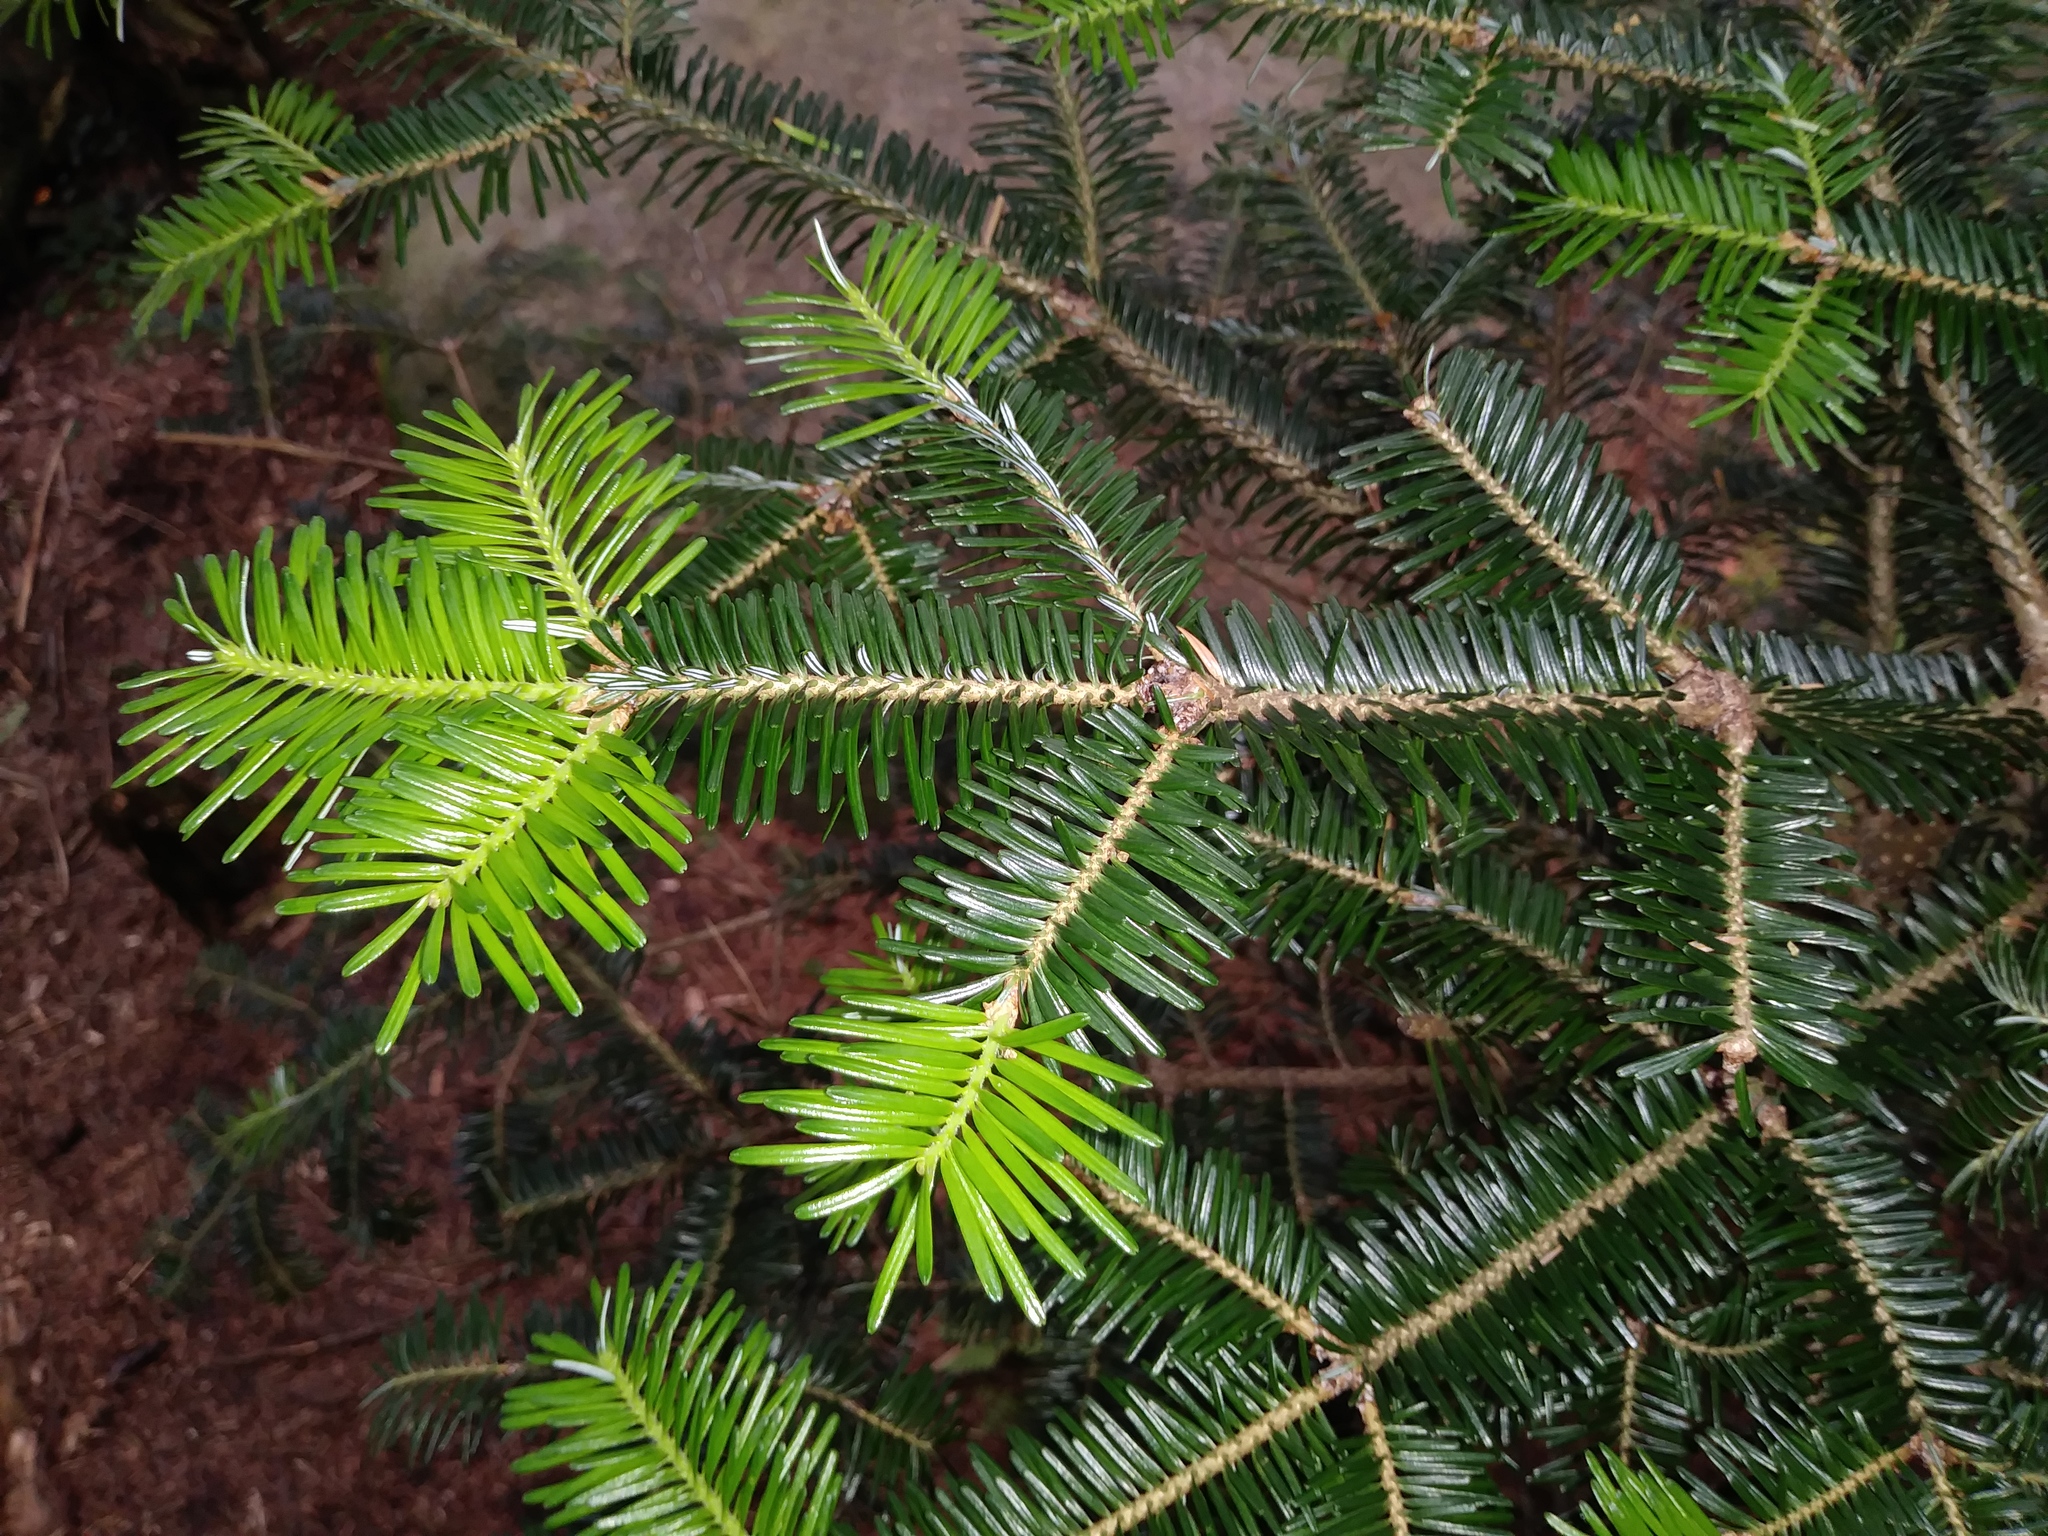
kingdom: Plantae
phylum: Tracheophyta
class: Pinopsida
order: Pinales
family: Pinaceae
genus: Abies
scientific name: Abies fraseri
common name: Fraser fir
